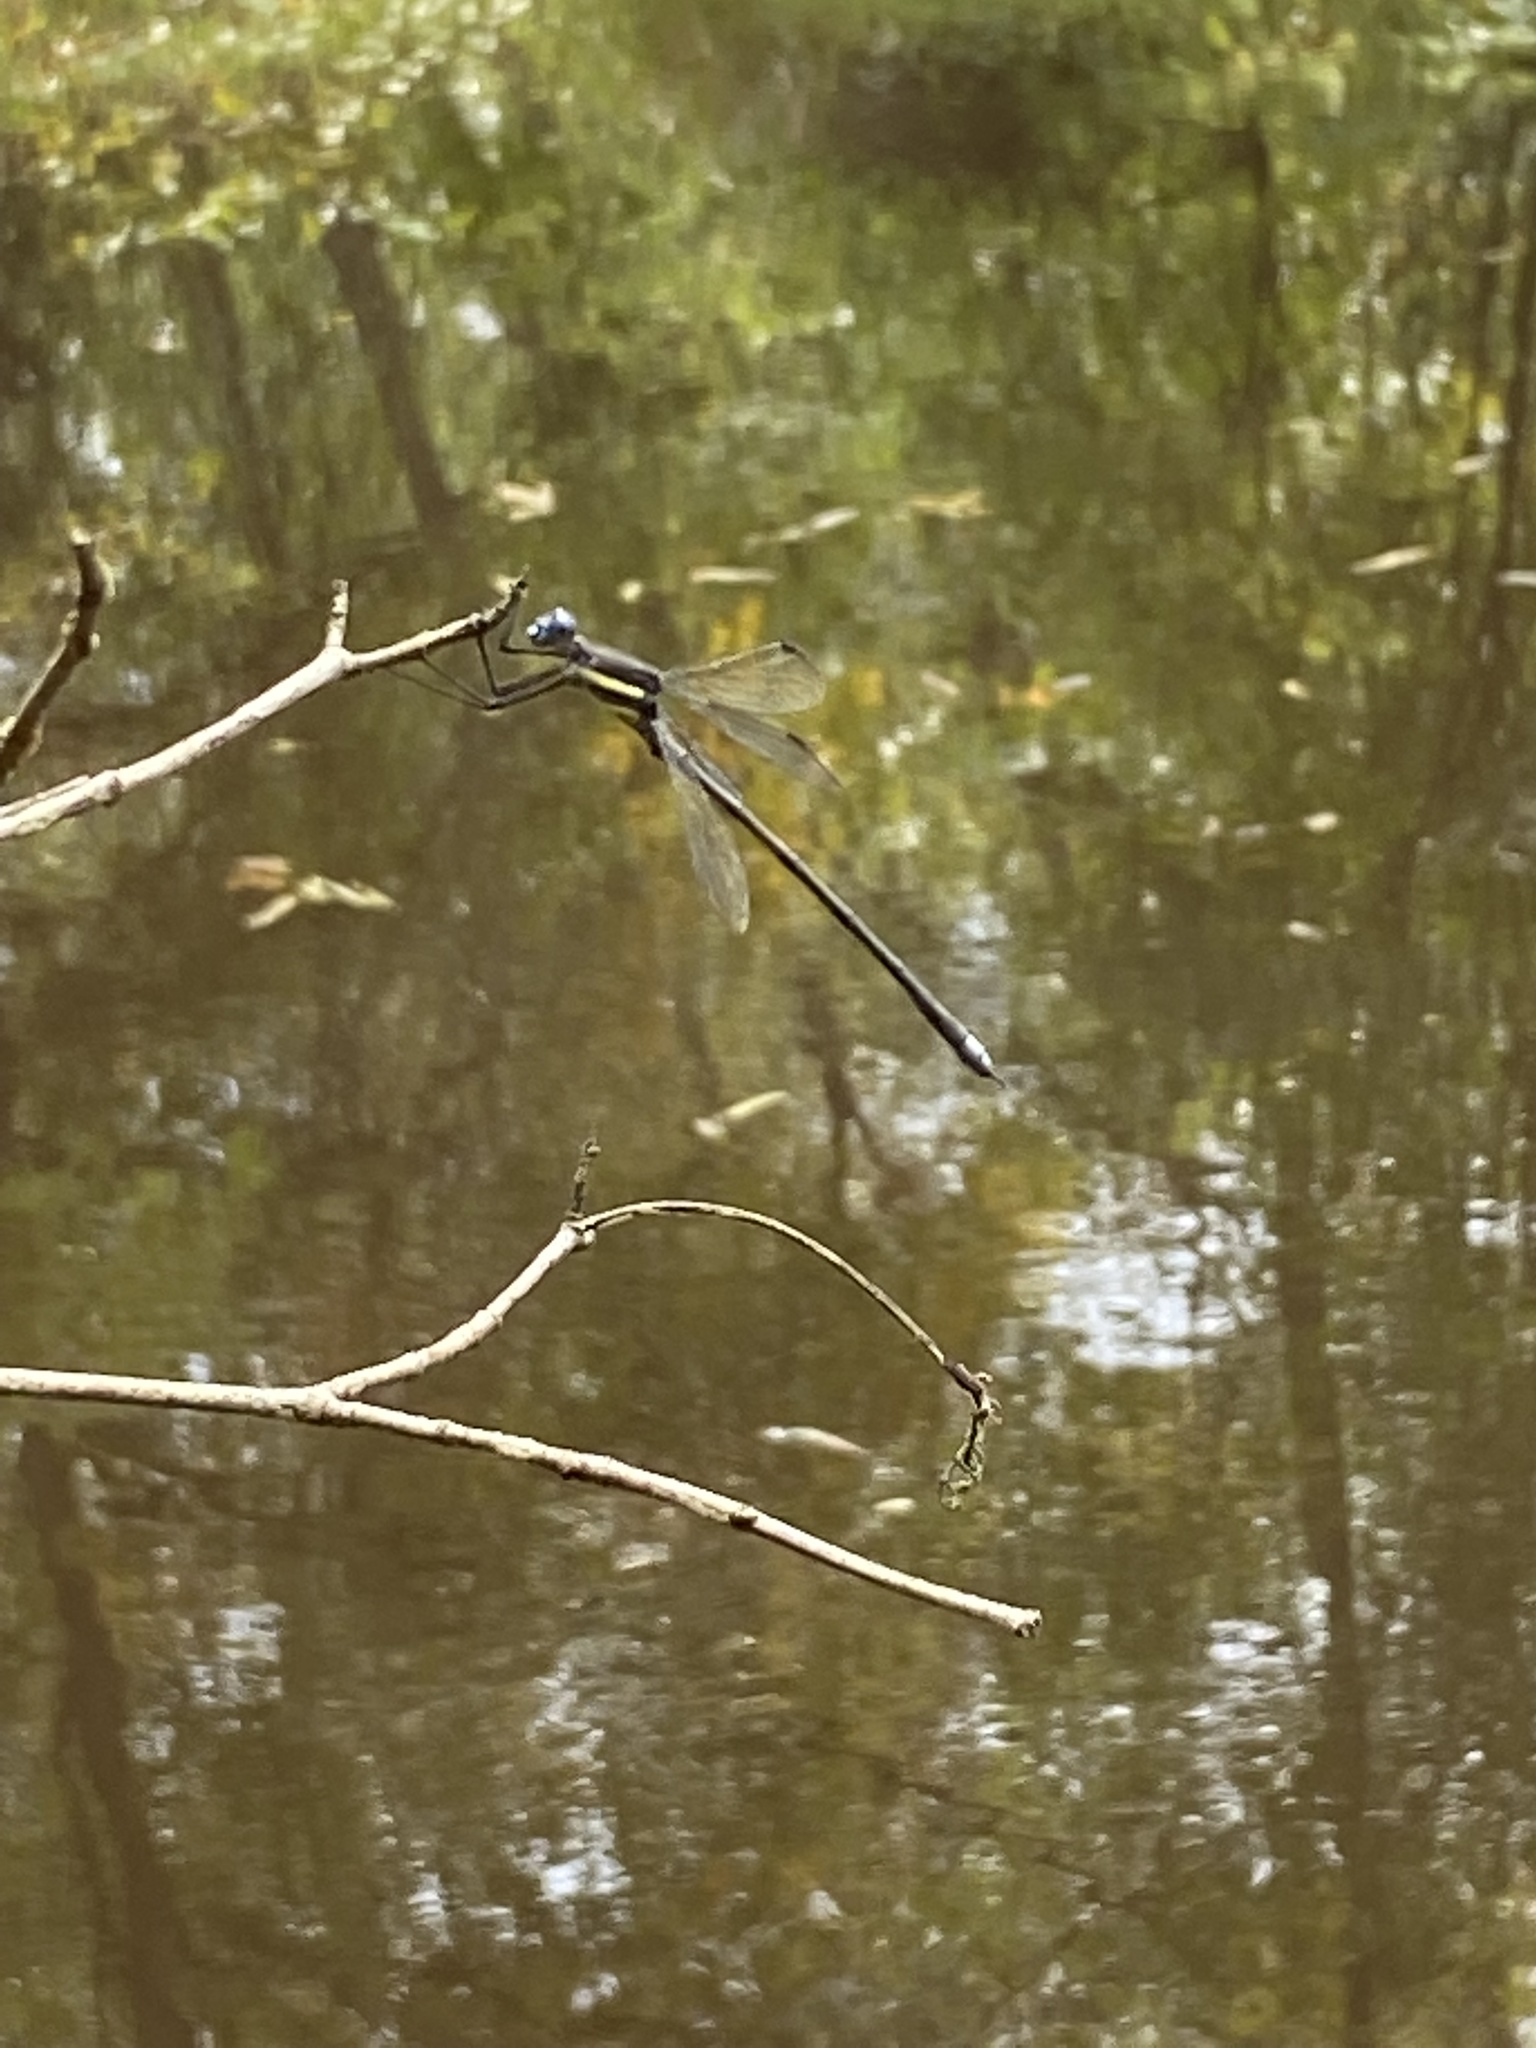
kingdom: Animalia
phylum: Arthropoda
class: Insecta
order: Odonata
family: Lestidae
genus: Archilestes
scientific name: Archilestes grandis
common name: Great spreadwing
